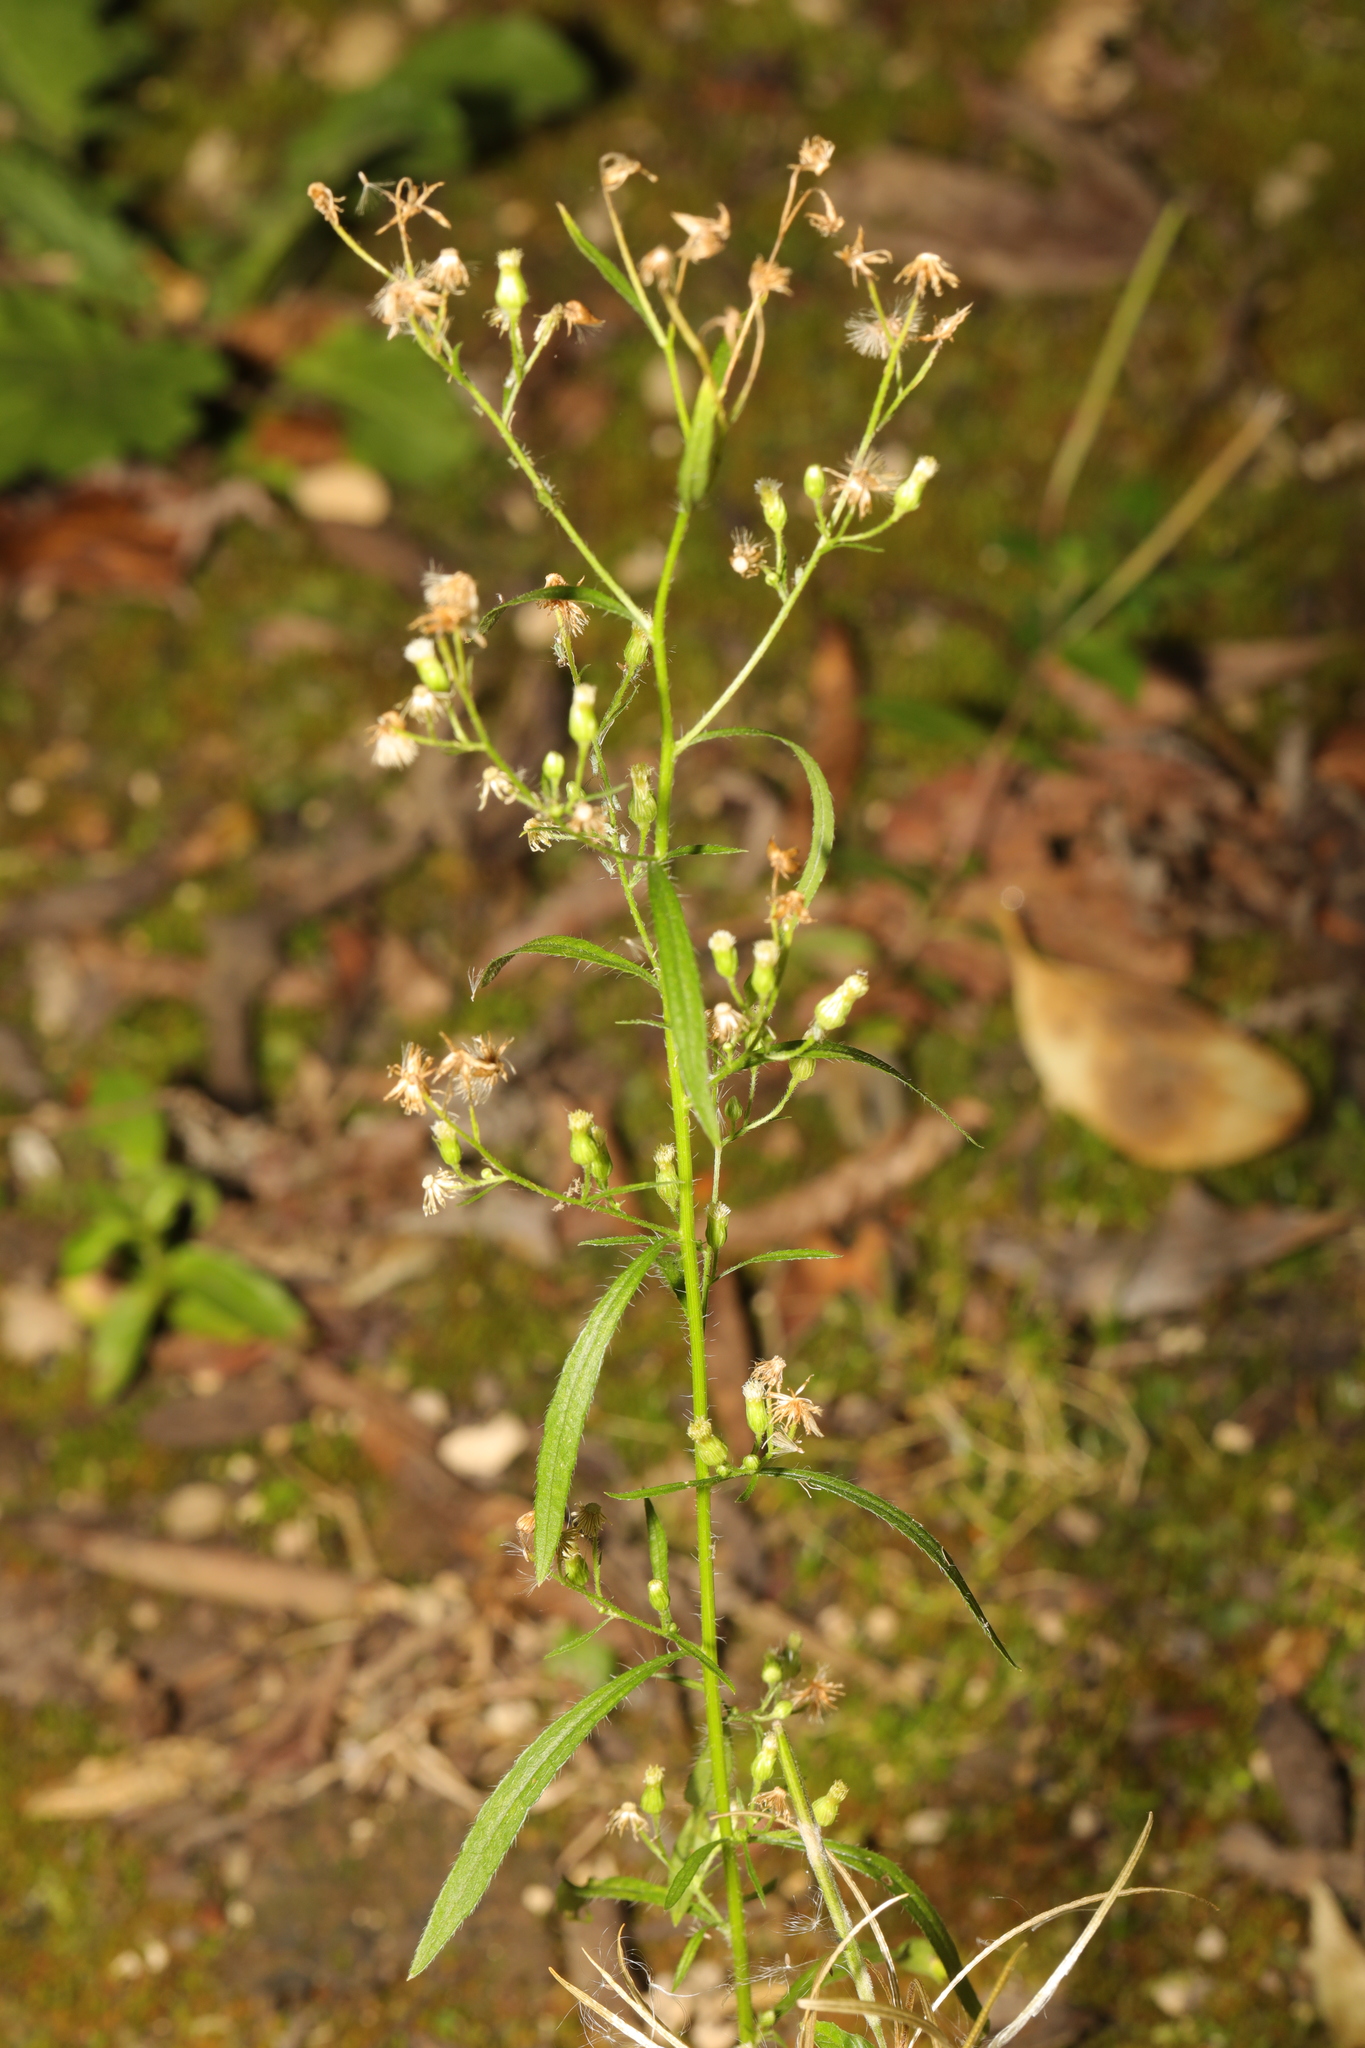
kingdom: Plantae
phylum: Tracheophyta
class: Magnoliopsida
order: Asterales
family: Asteraceae
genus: Erigeron
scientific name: Erigeron canadensis
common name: Canadian fleabane
